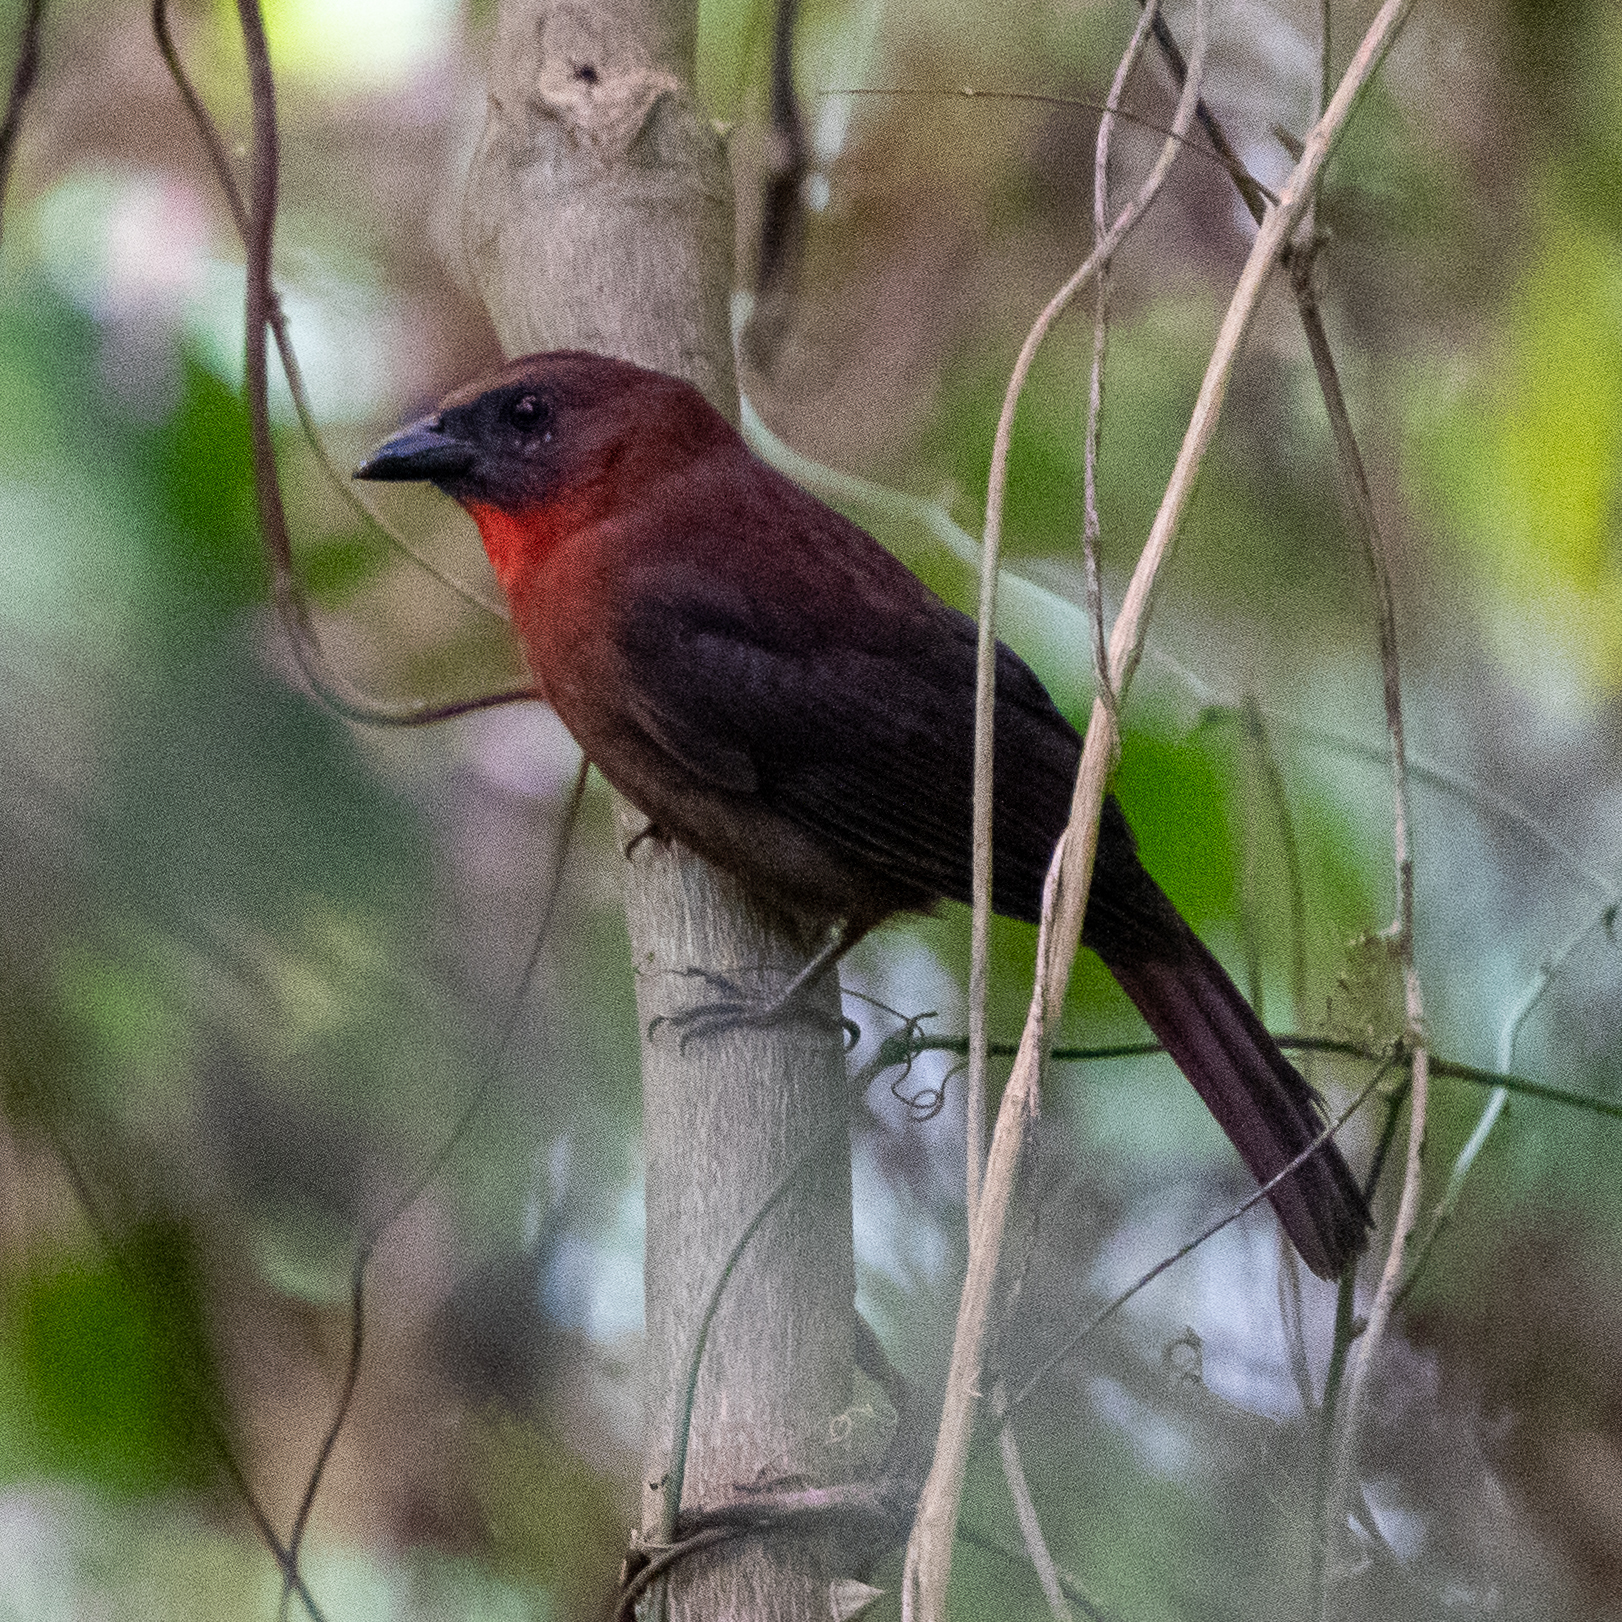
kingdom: Animalia
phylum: Chordata
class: Aves
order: Passeriformes
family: Cardinalidae
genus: Habia
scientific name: Habia fuscicauda
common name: Red-throated ant-tanager
